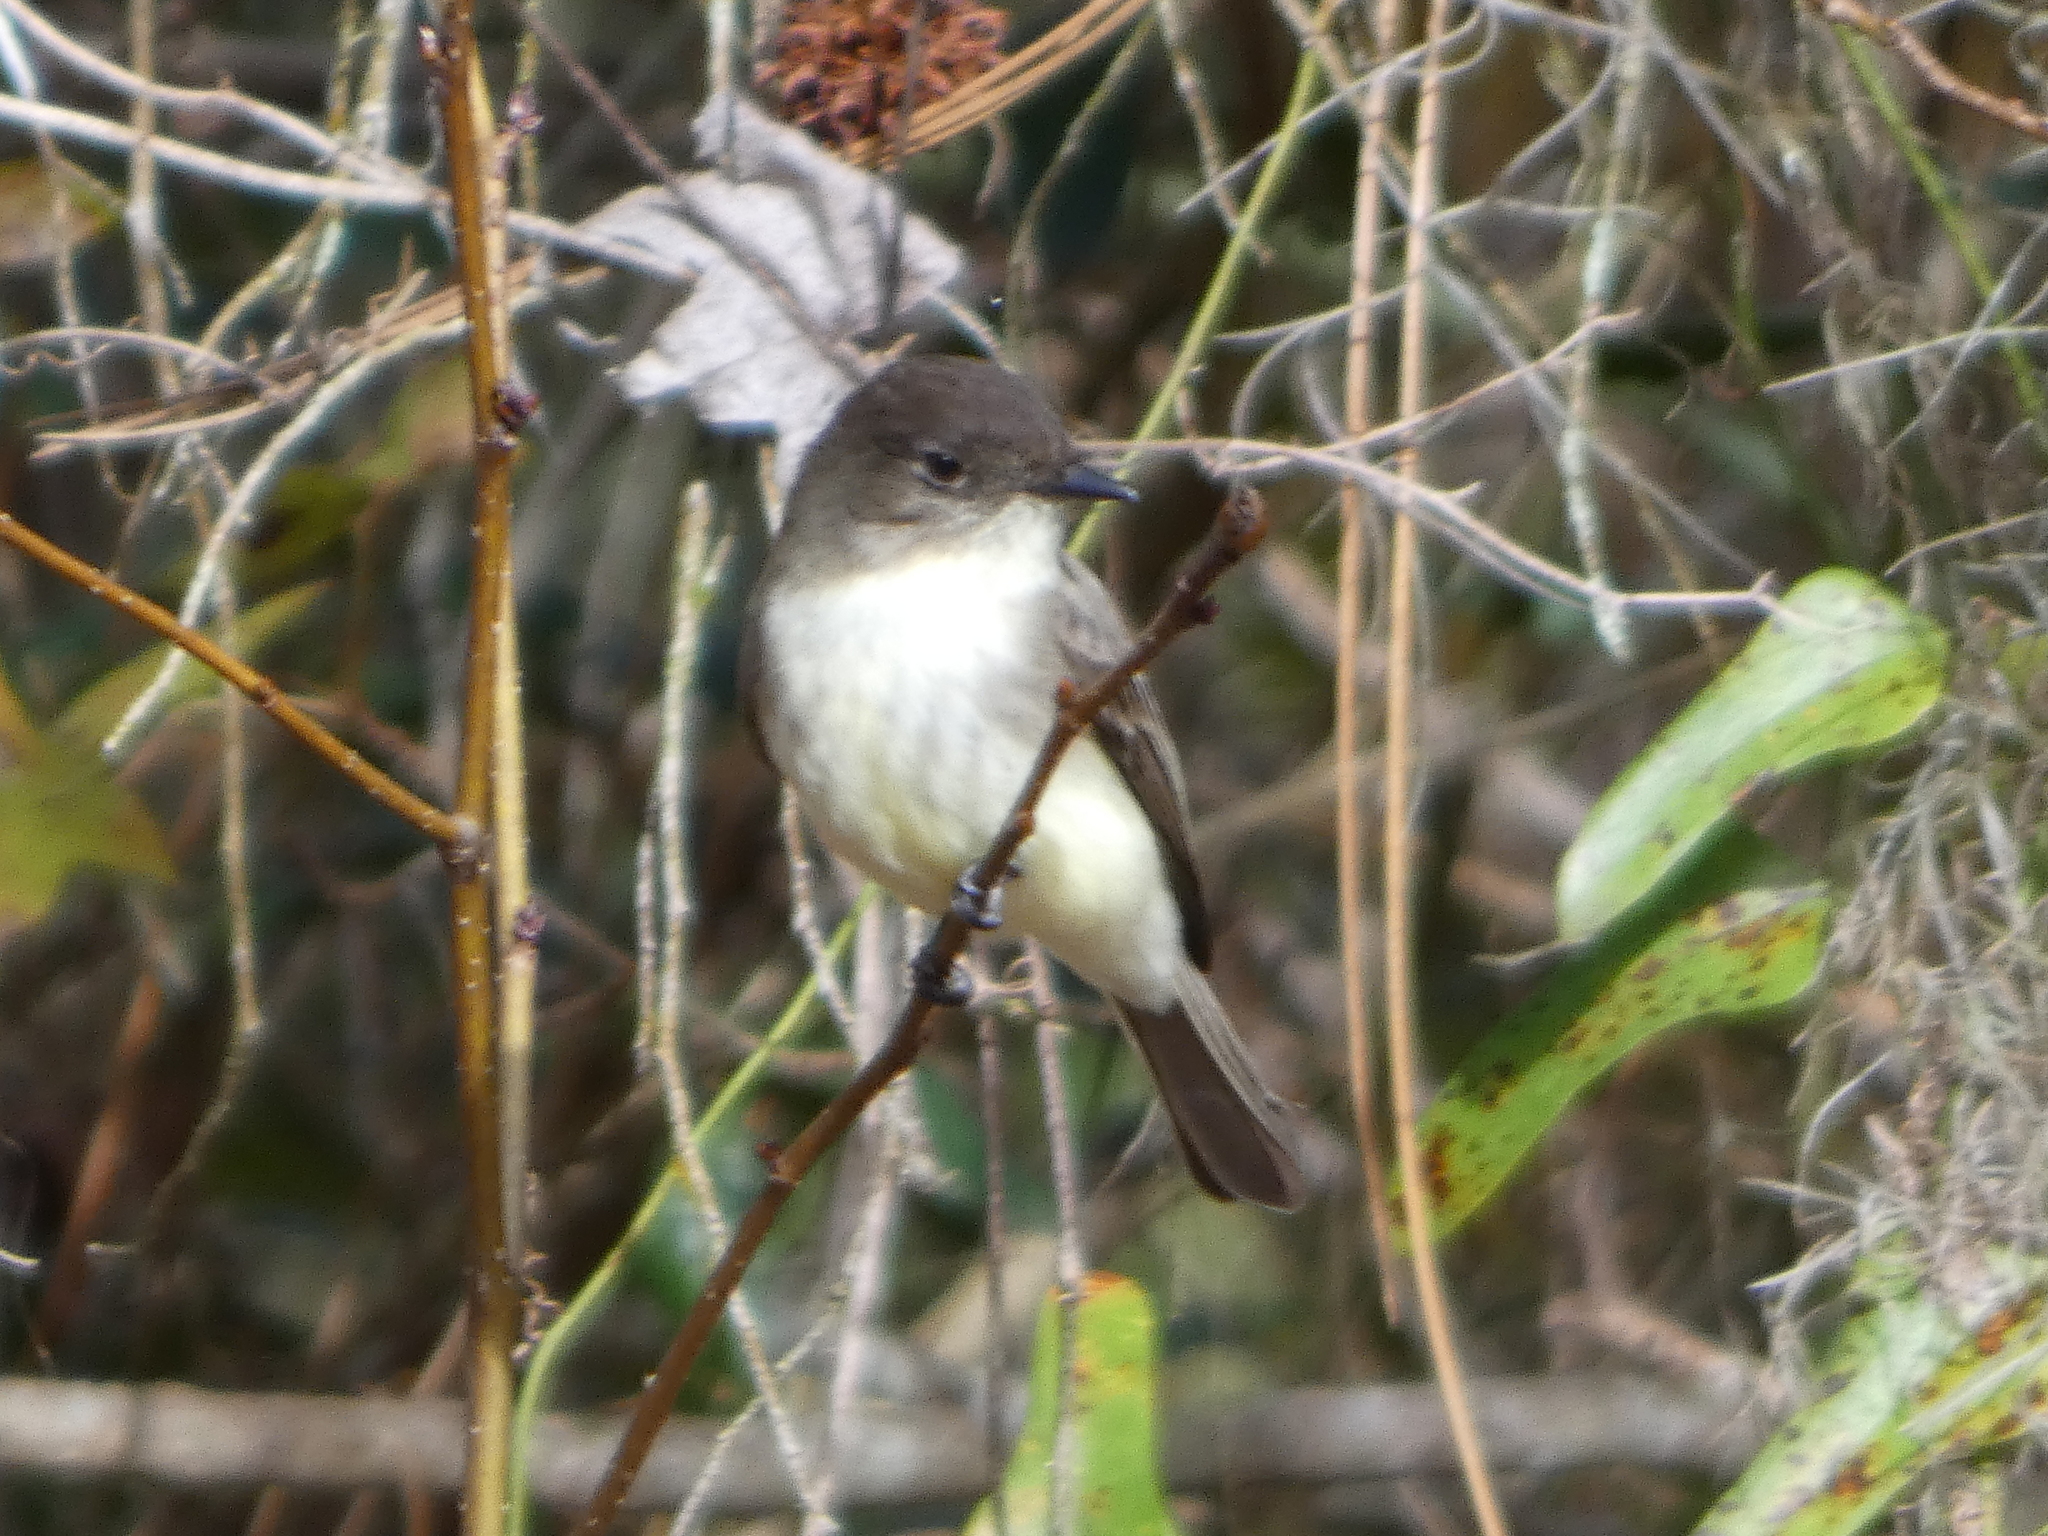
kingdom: Animalia
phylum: Chordata
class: Aves
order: Passeriformes
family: Tyrannidae
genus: Sayornis
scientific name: Sayornis phoebe
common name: Eastern phoebe
